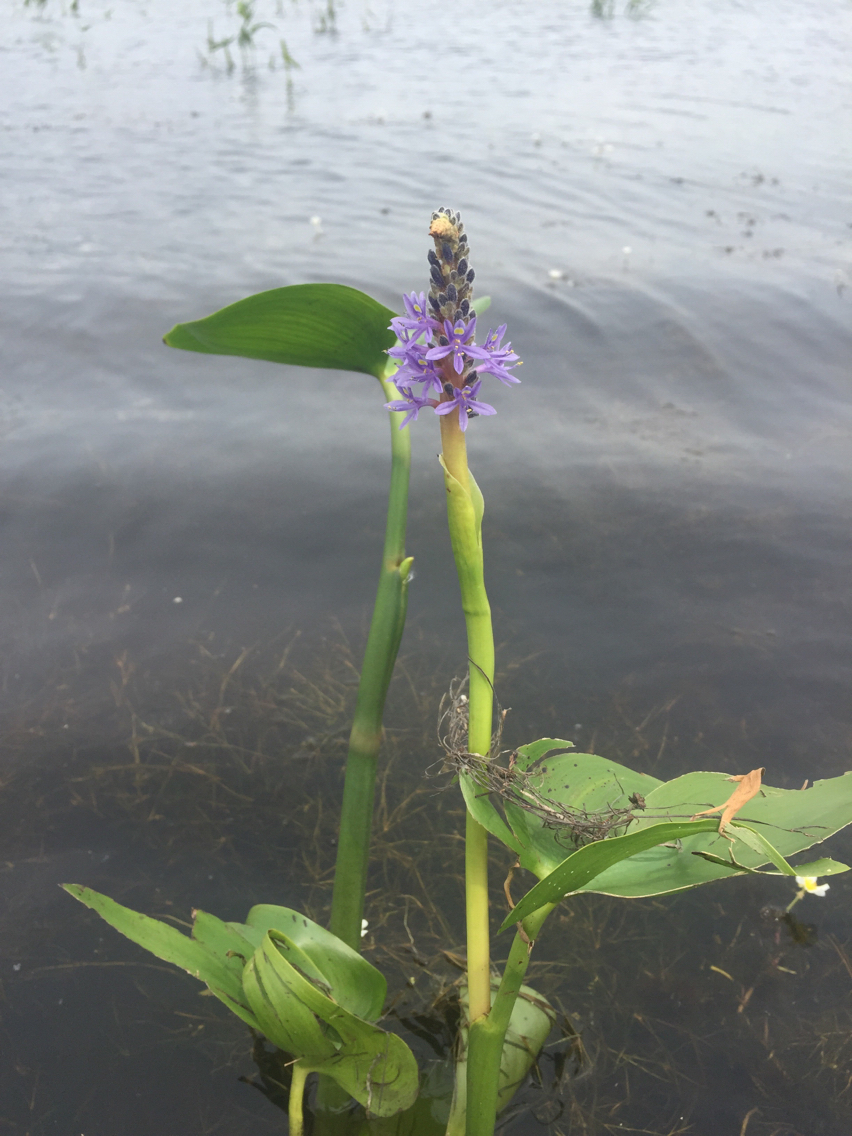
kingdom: Plantae
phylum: Tracheophyta
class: Liliopsida
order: Commelinales
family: Pontederiaceae
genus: Pontederia
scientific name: Pontederia cordata
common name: Pickerelweed
